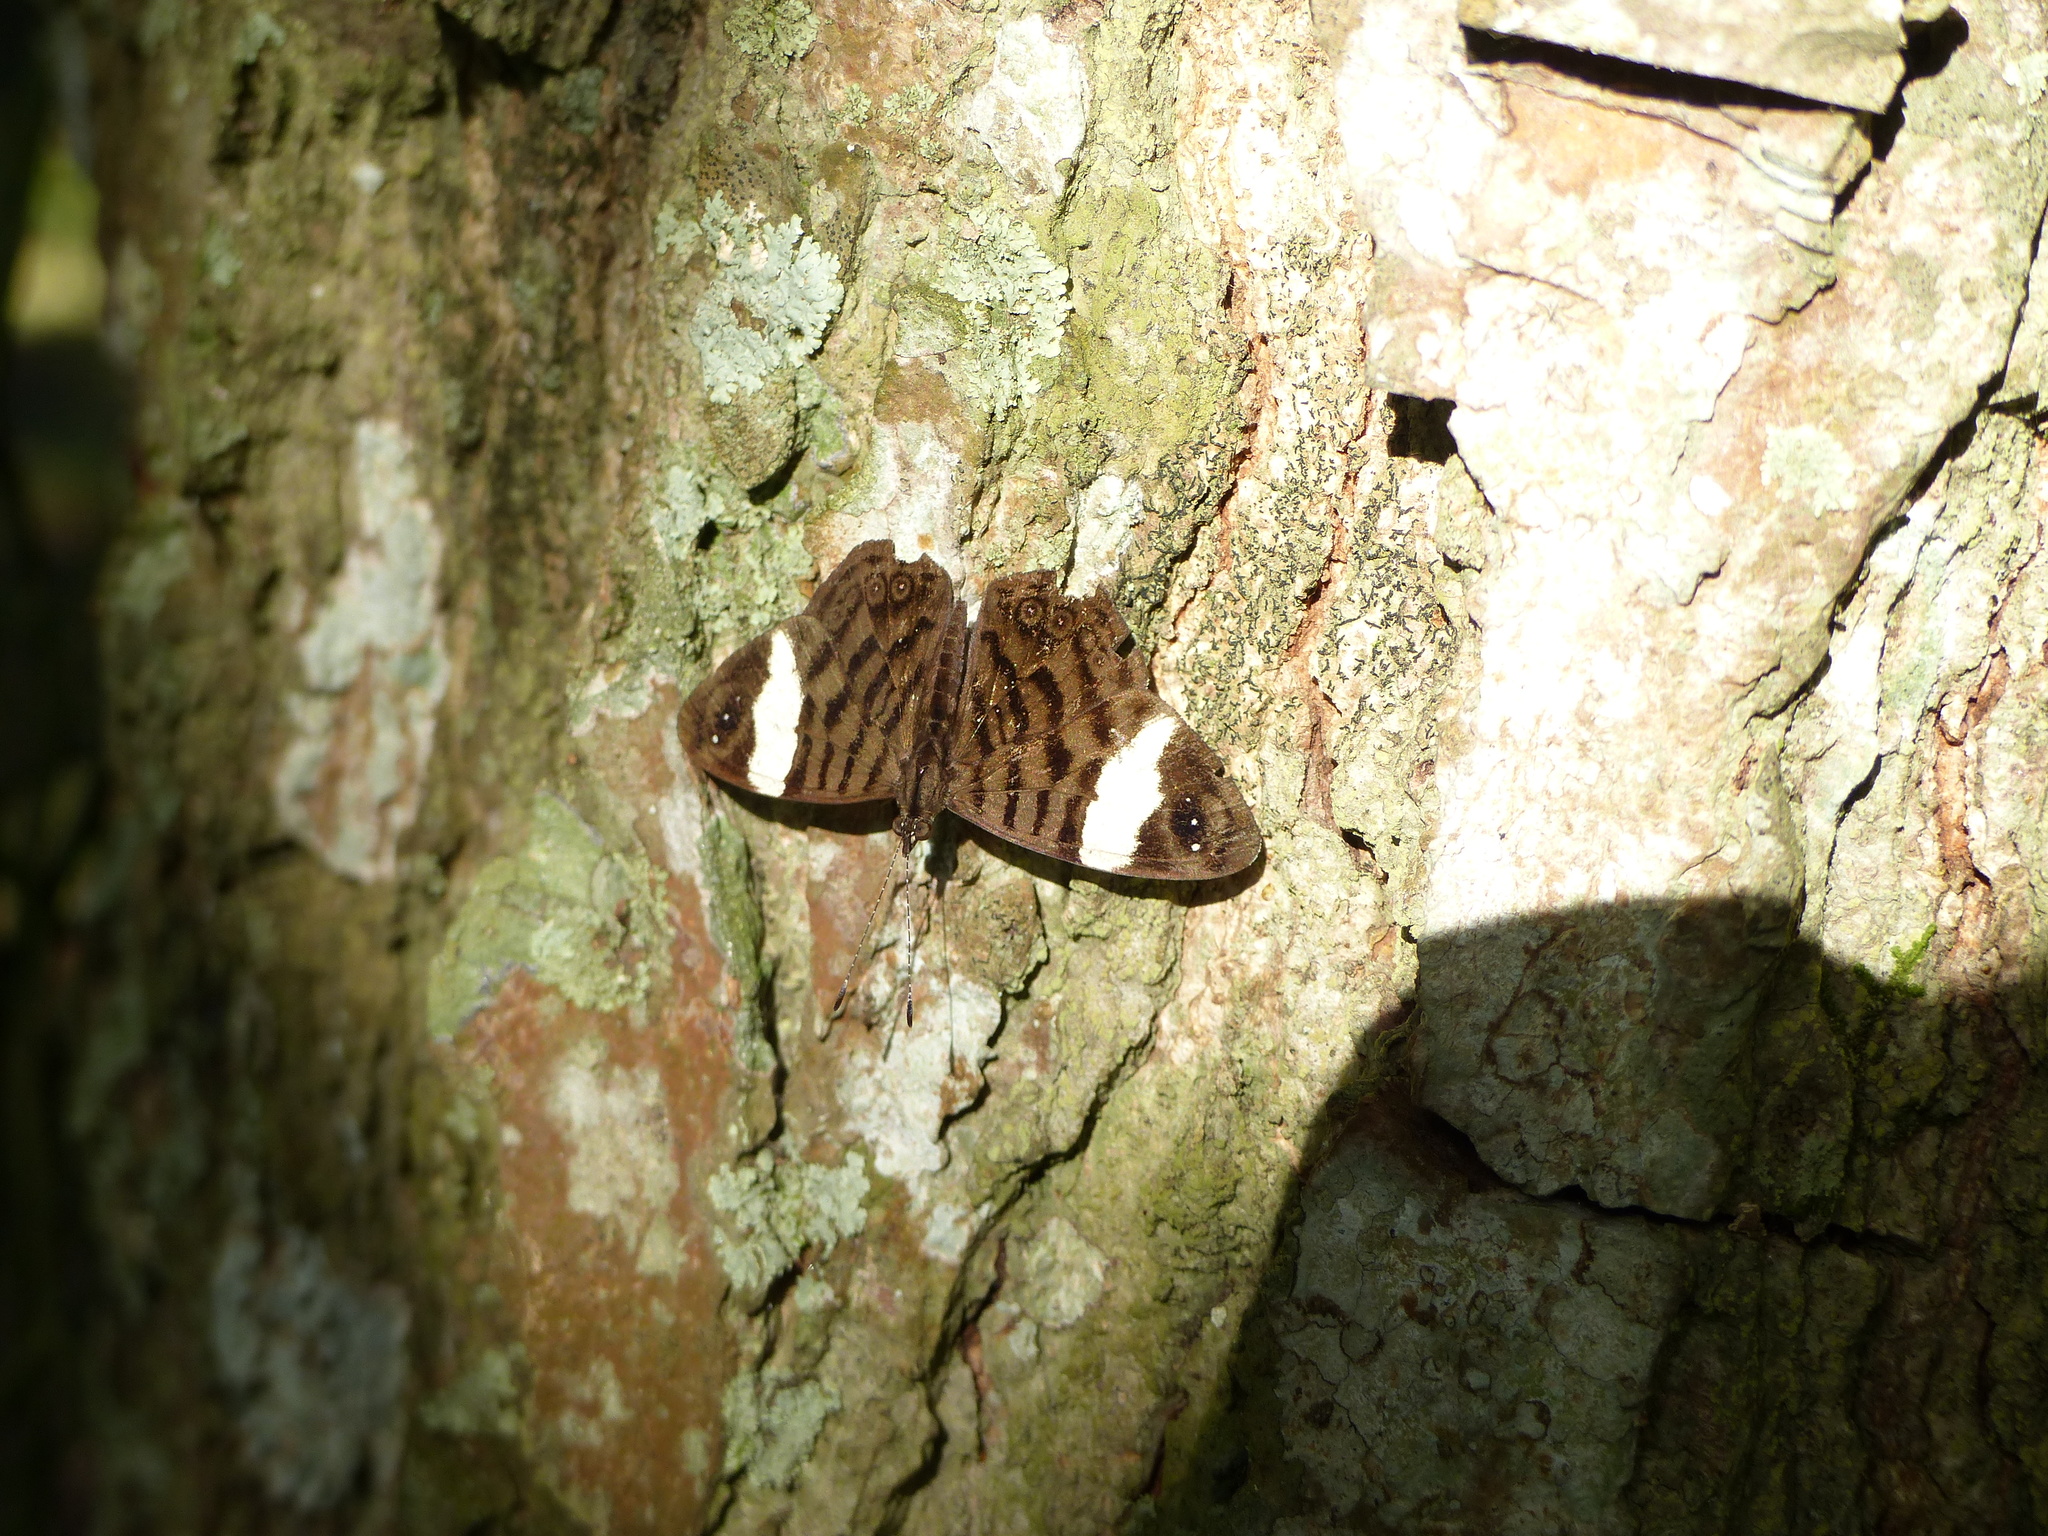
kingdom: Animalia
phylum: Arthropoda
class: Insecta
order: Lepidoptera
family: Nymphalidae
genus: Ectima
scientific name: Ectima thecla
